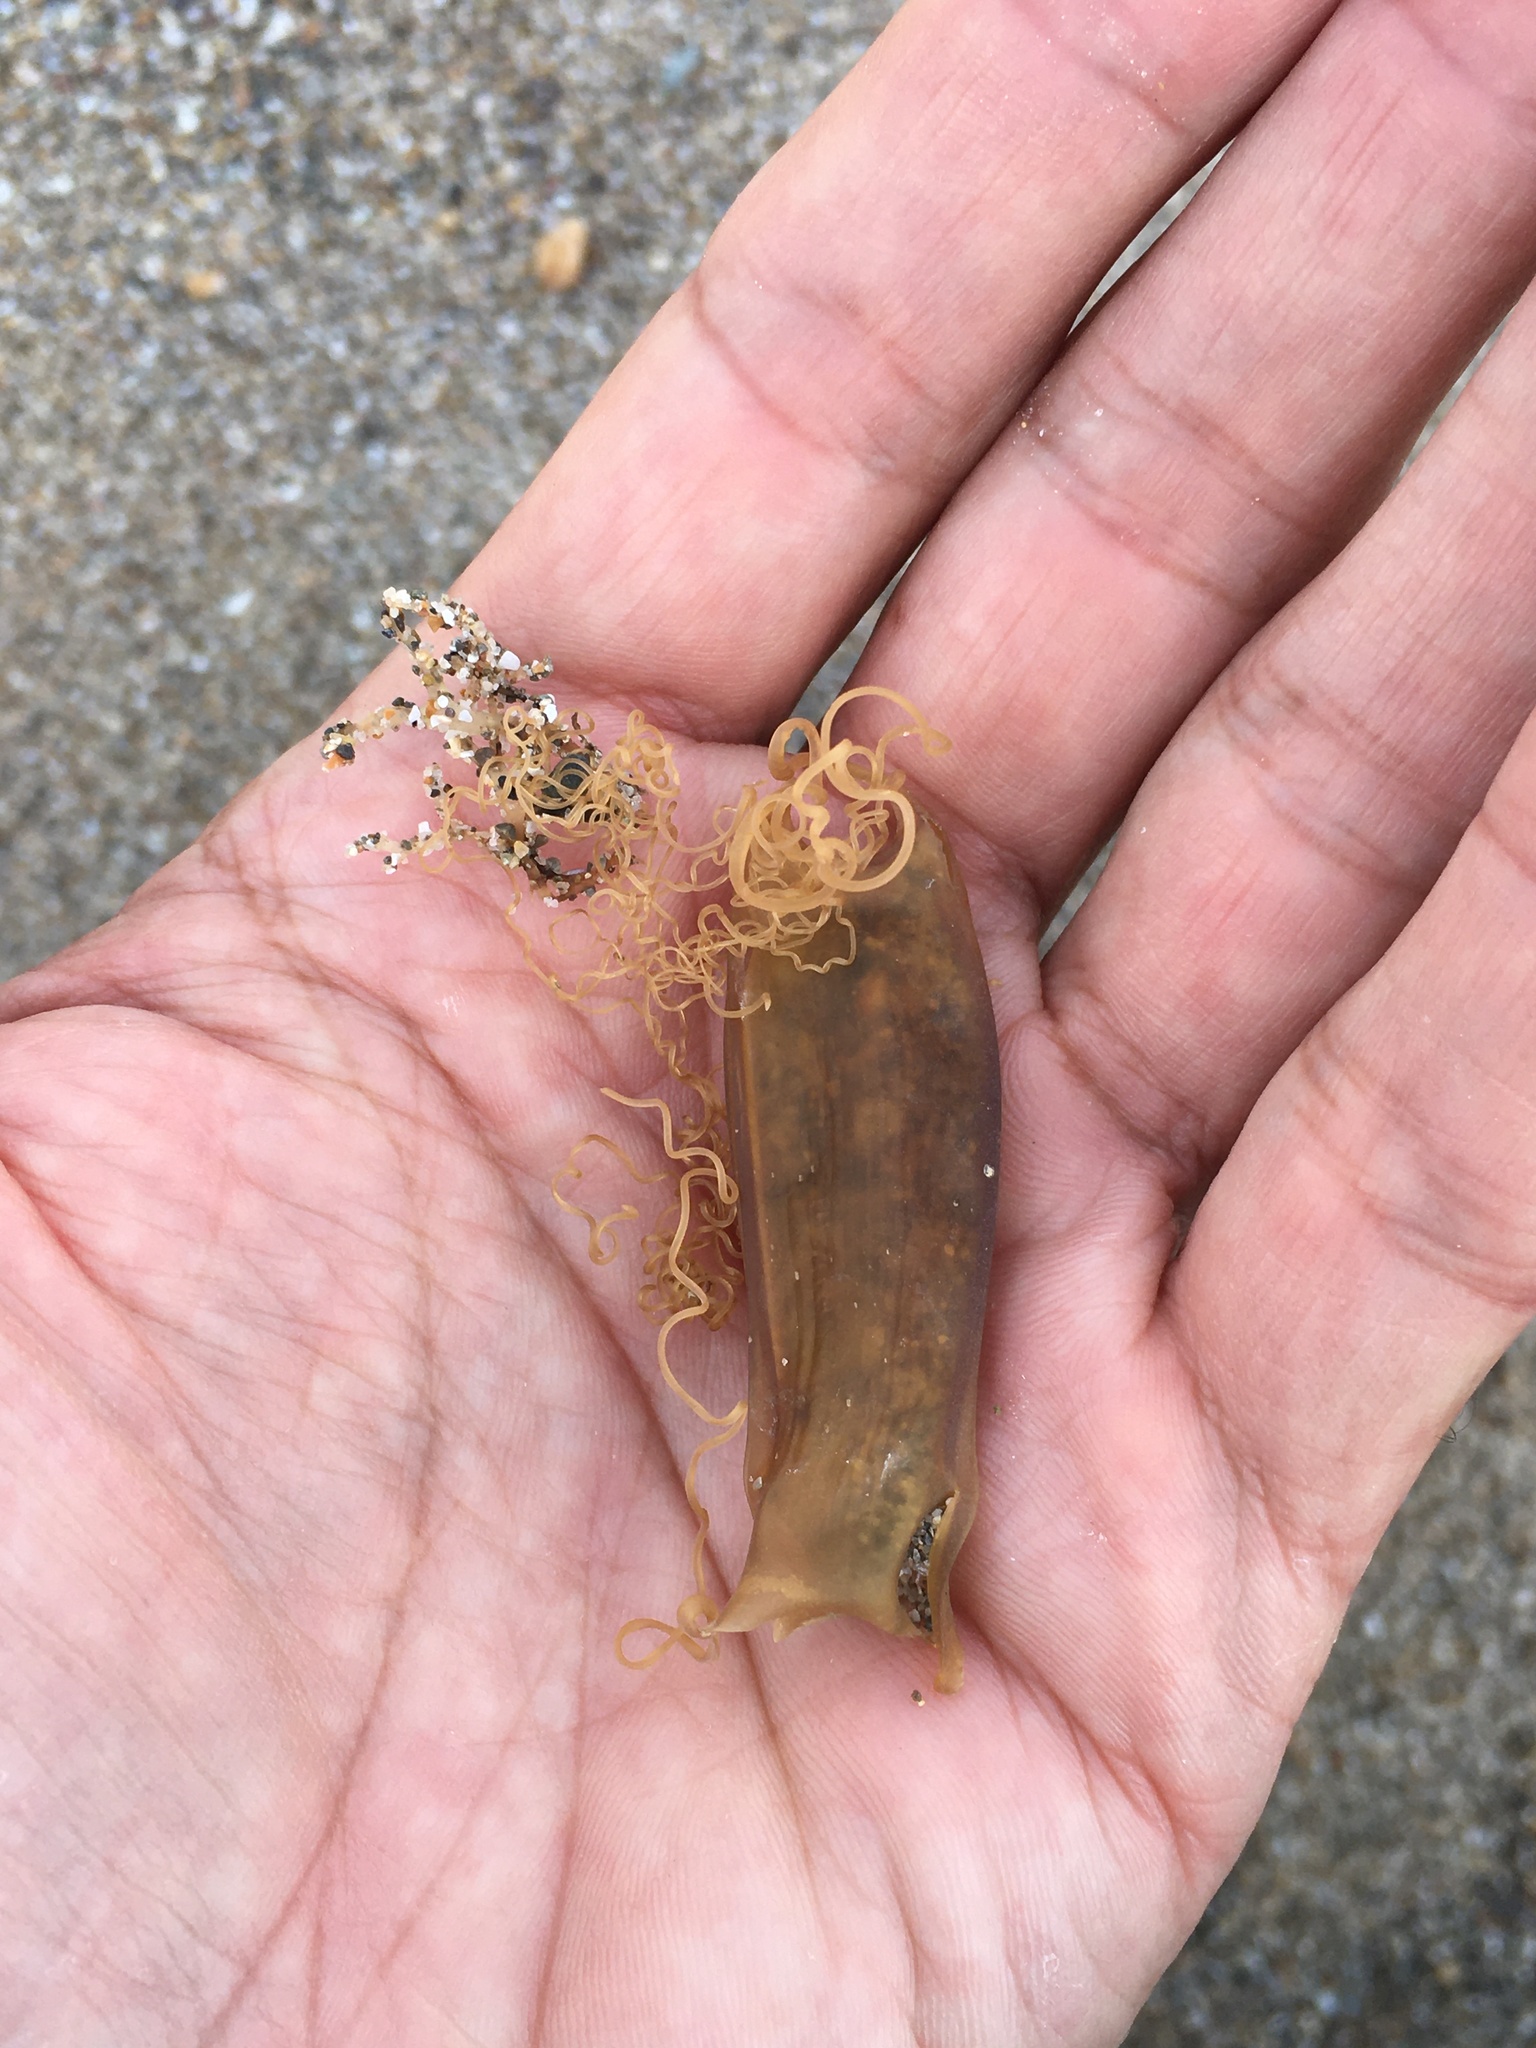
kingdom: Animalia
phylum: Chordata
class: Elasmobranchii
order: Carcharhiniformes
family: Scyliorhinidae
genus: Scyliorhinus
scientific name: Scyliorhinus canicula
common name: Lesser spotted dogfish
